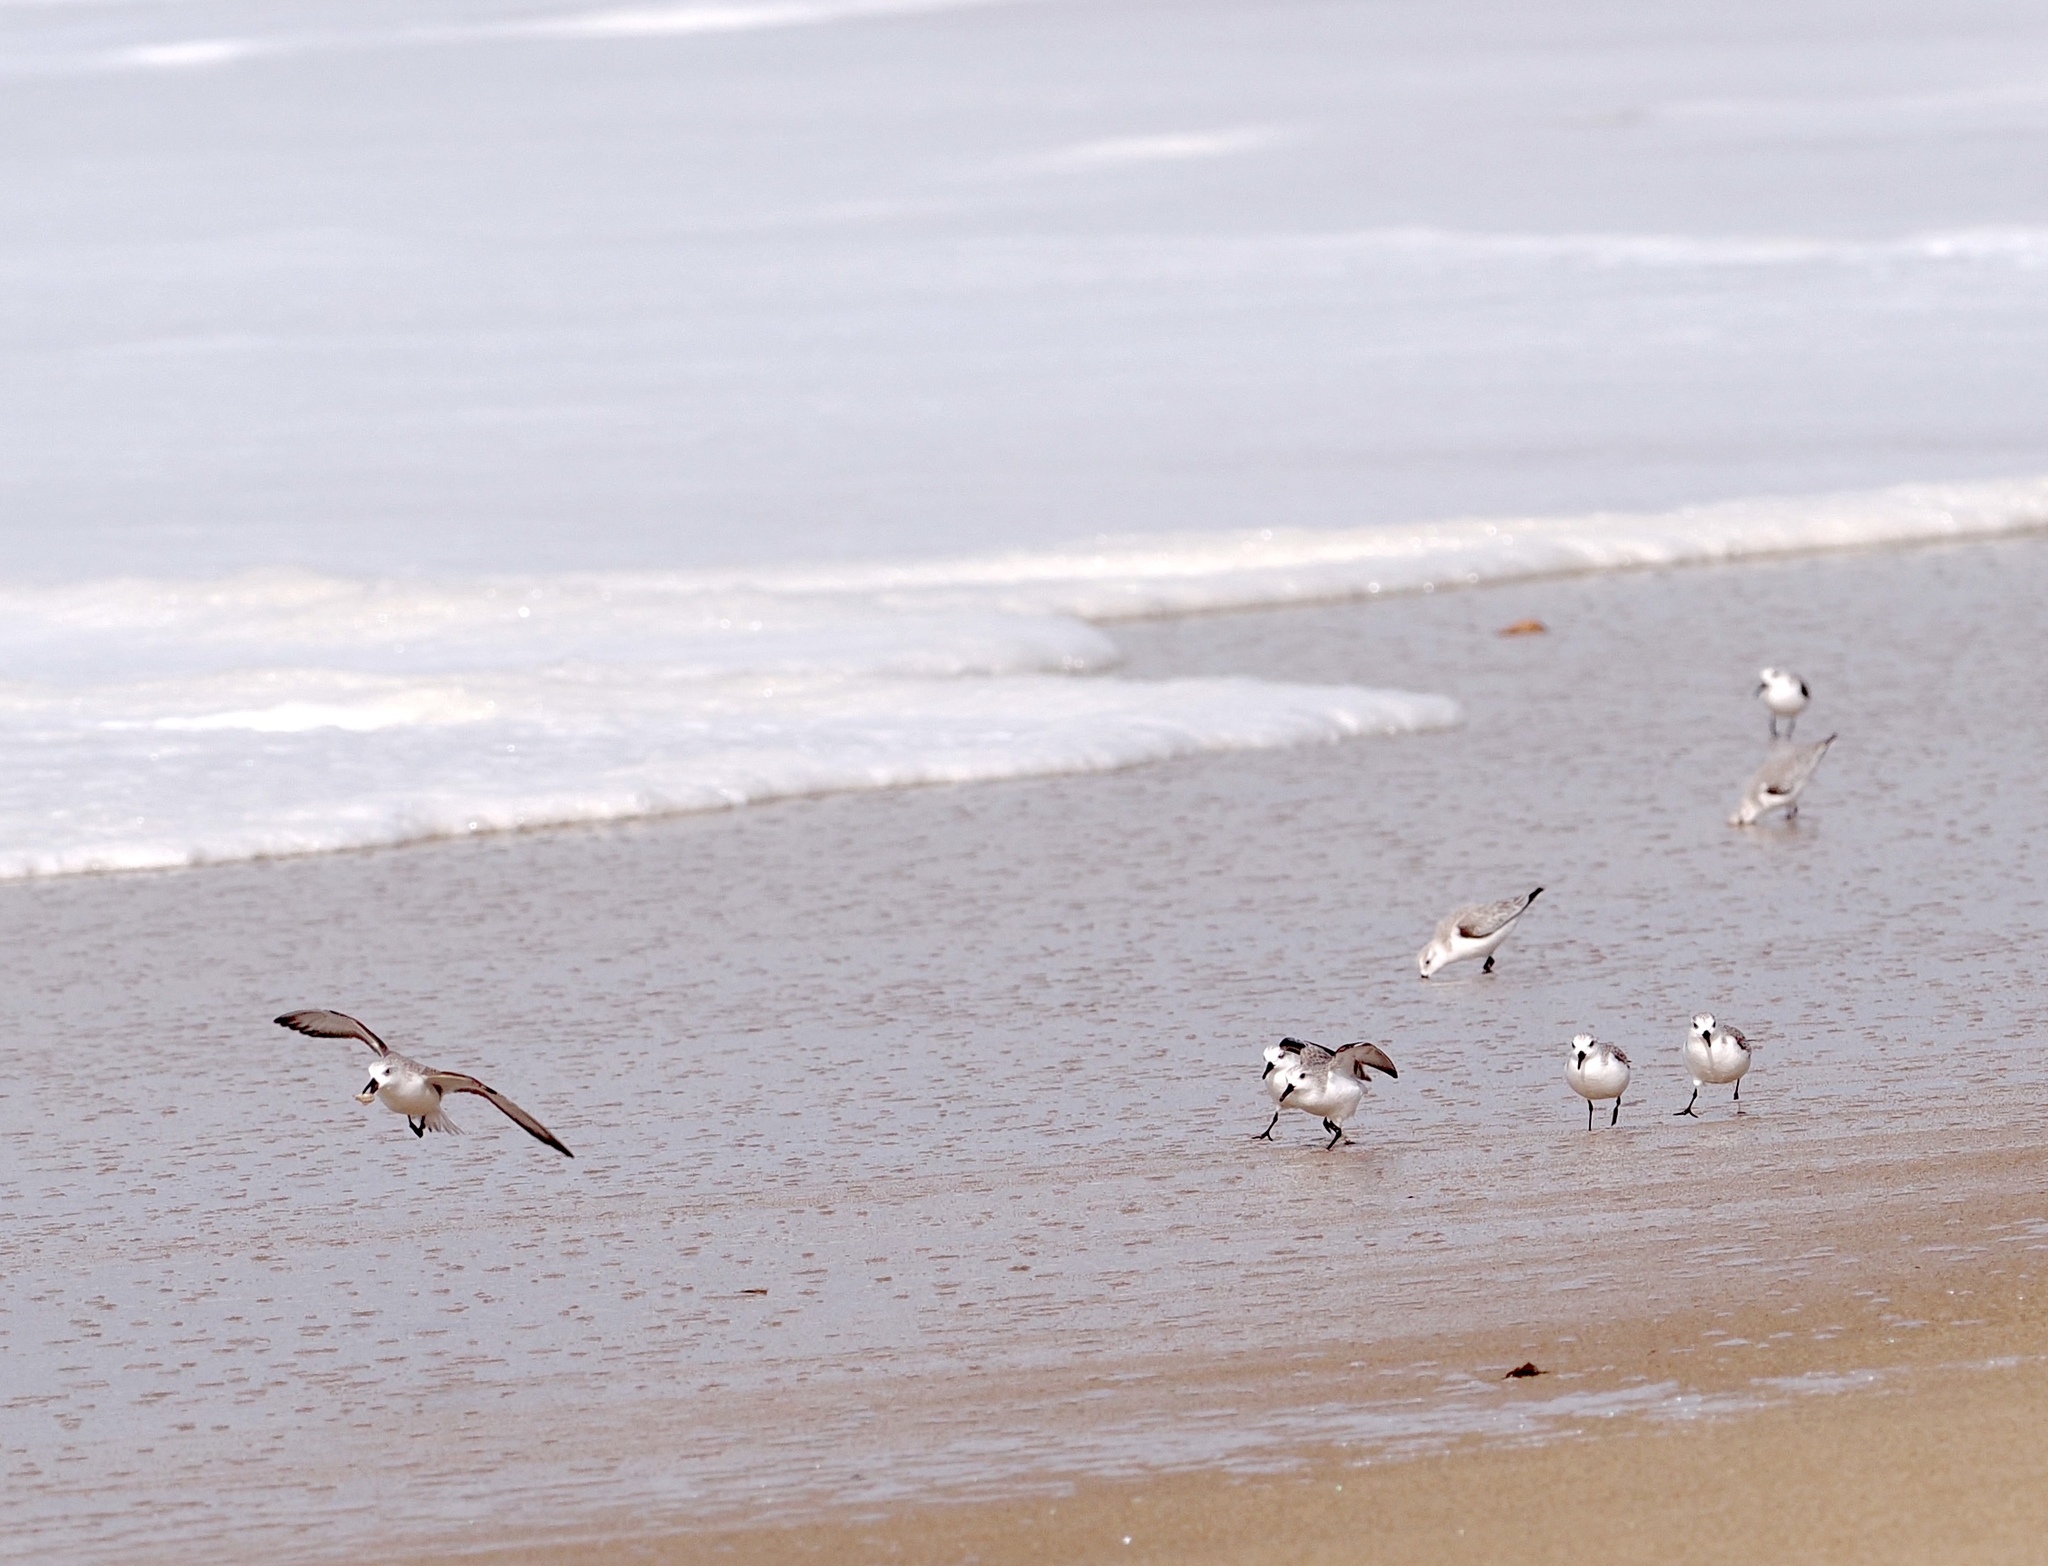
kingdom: Animalia
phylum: Chordata
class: Aves
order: Charadriiformes
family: Scolopacidae
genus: Calidris
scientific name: Calidris alba
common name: Sanderling
